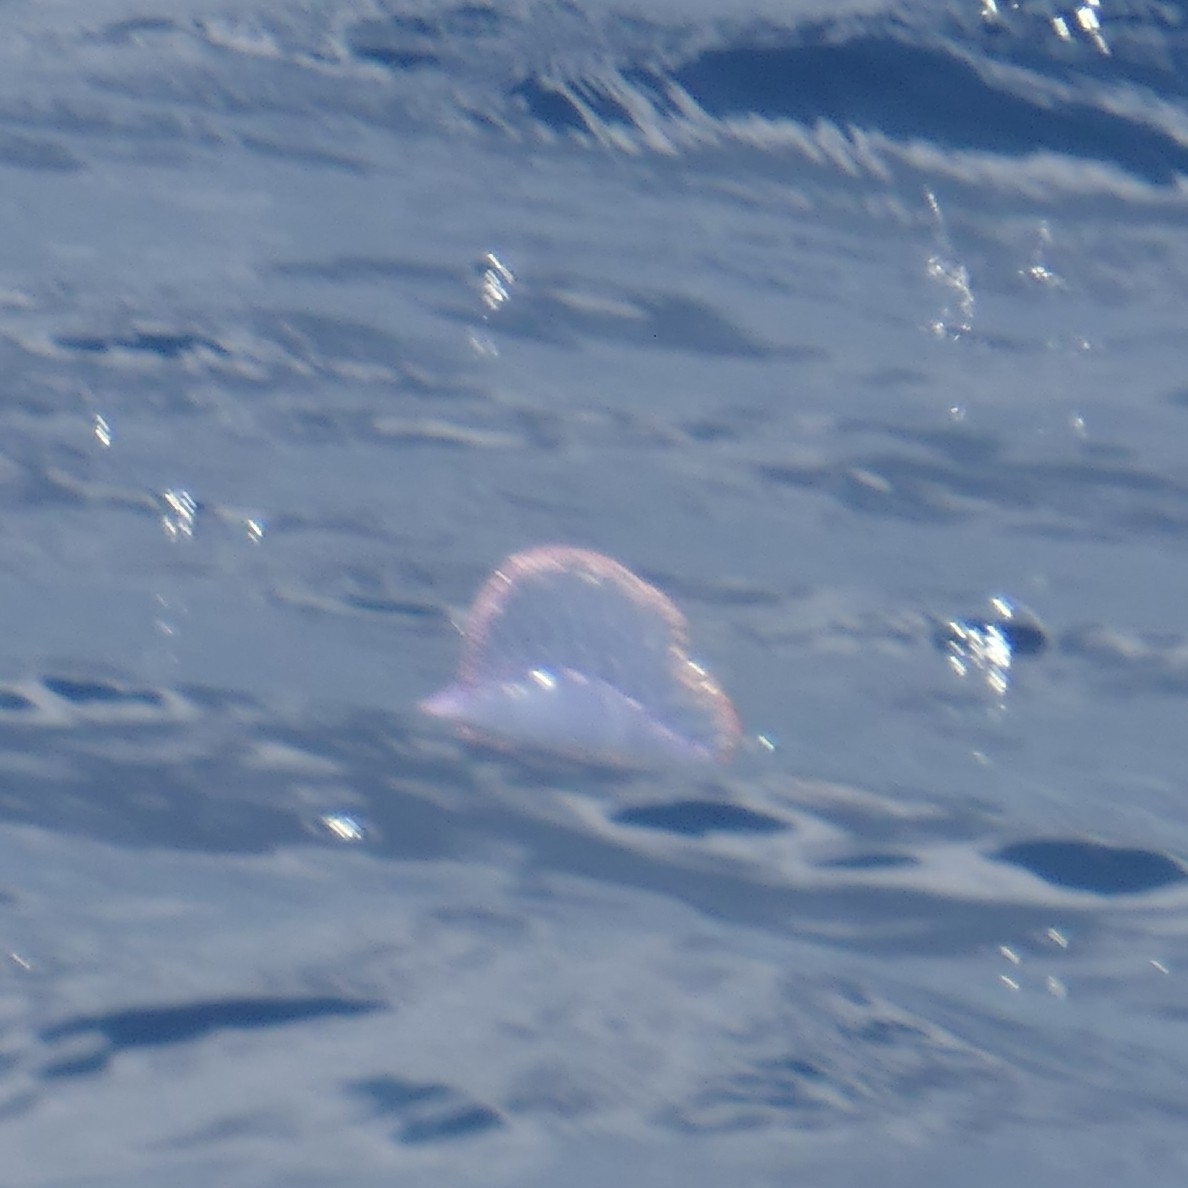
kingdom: Animalia
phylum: Cnidaria
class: Hydrozoa
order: Siphonophorae
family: Physaliidae
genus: Physalia
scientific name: Physalia physalis
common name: Portuguese man-of-war
